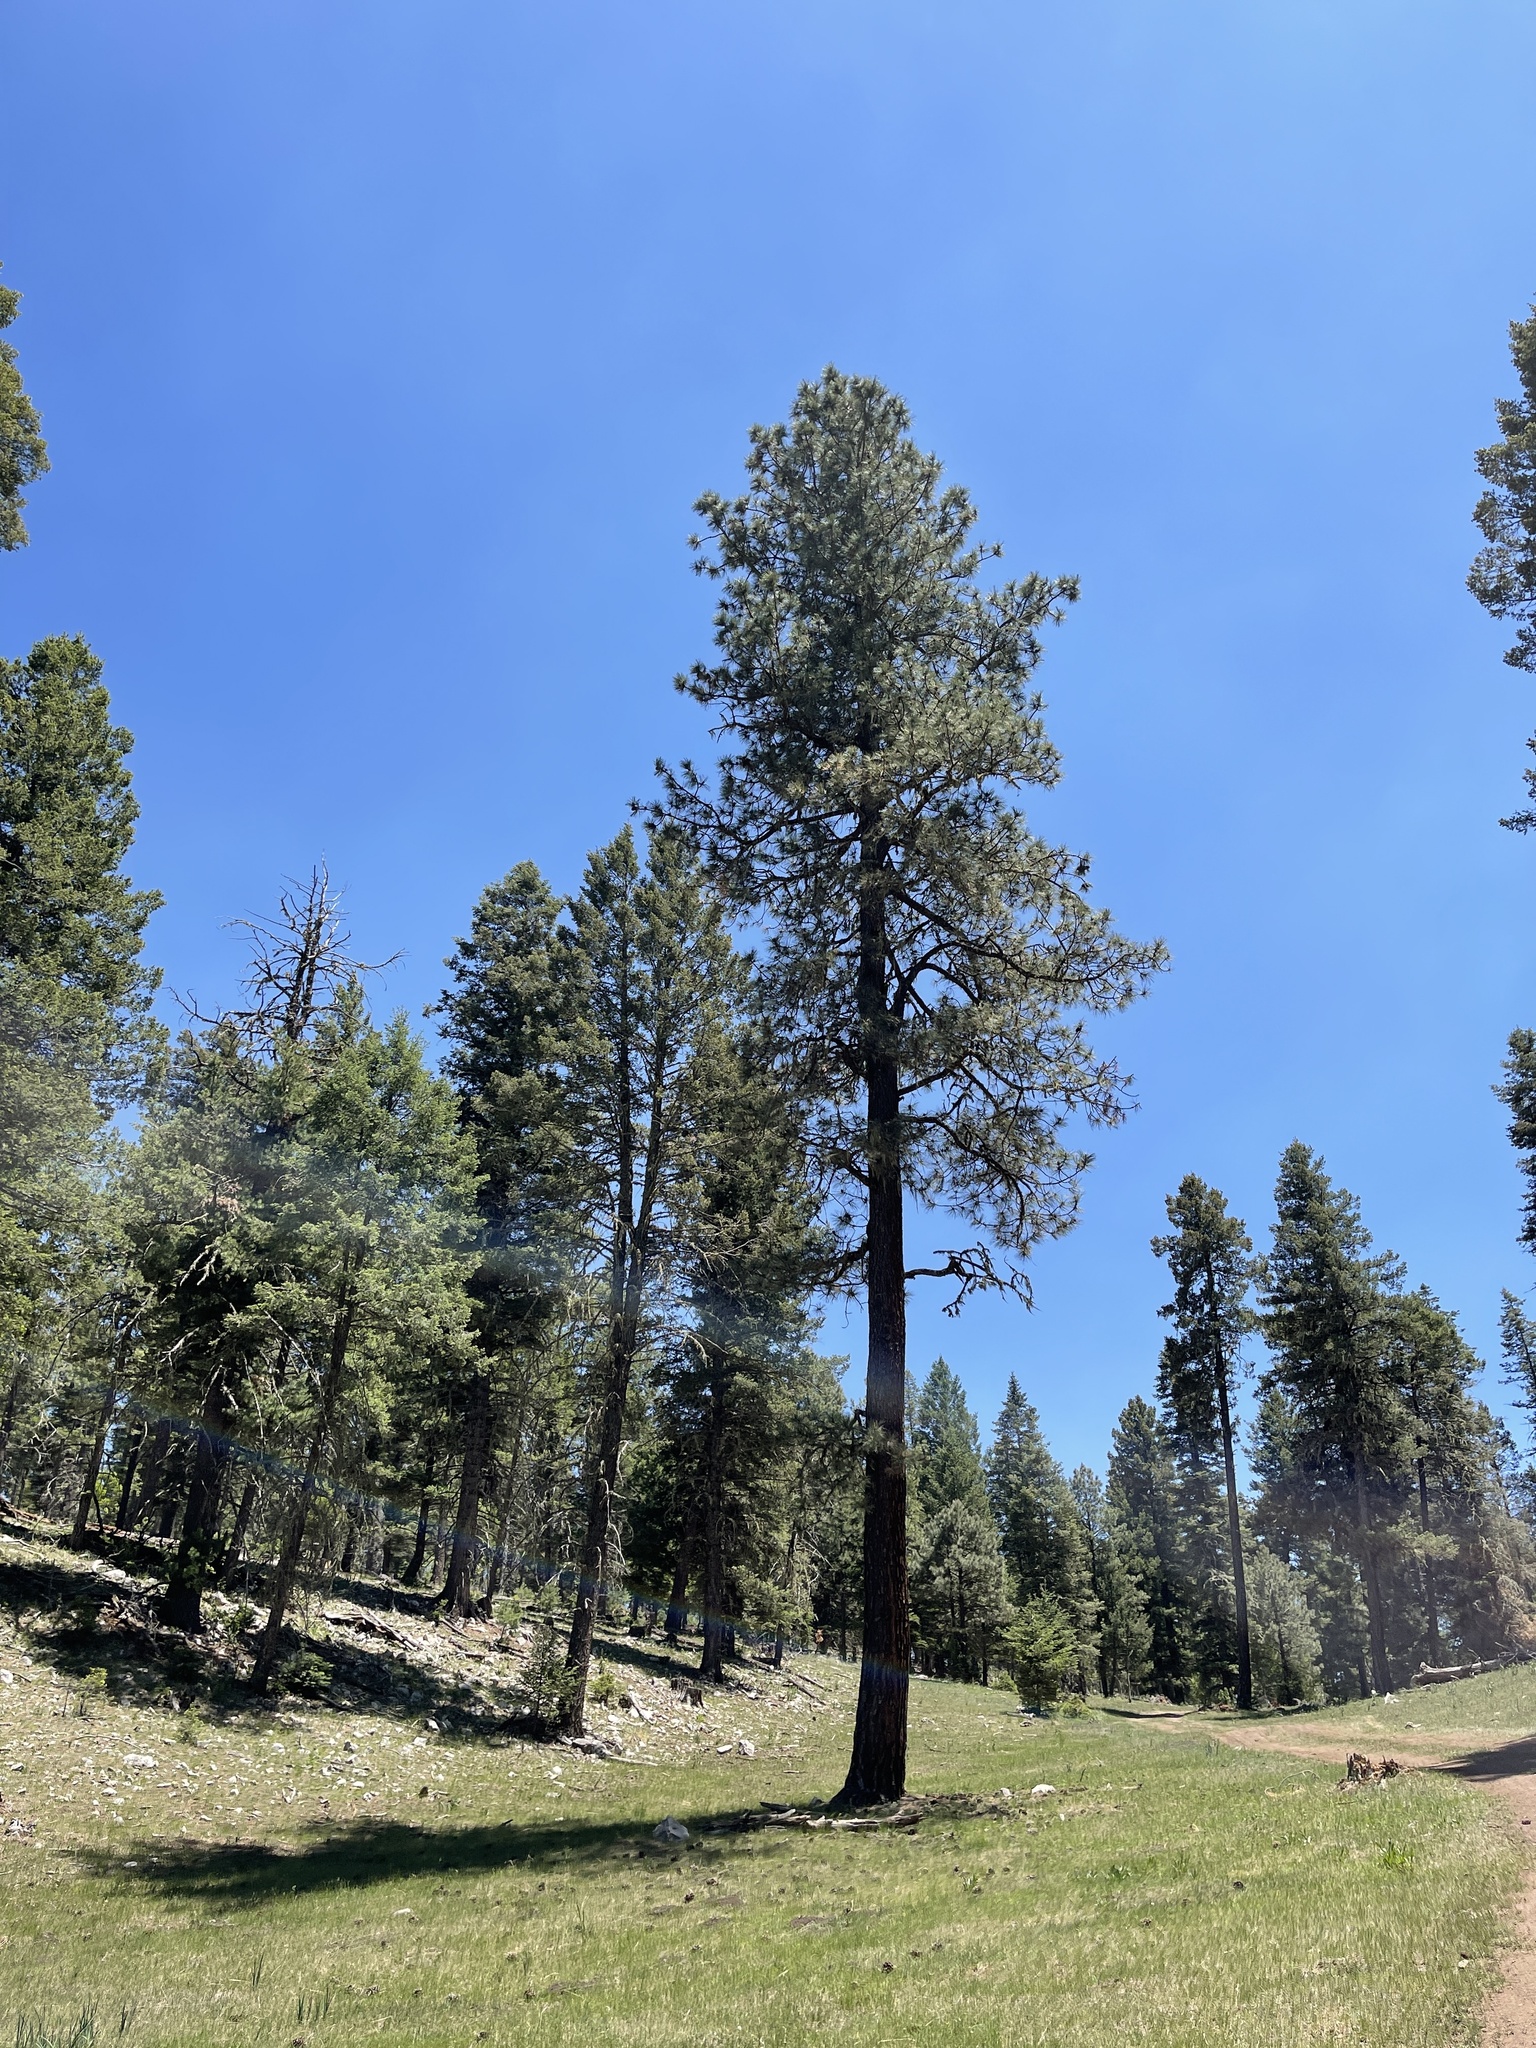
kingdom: Plantae
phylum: Tracheophyta
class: Pinopsida
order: Pinales
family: Pinaceae
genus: Pinus
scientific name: Pinus ponderosa
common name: Western yellow-pine
